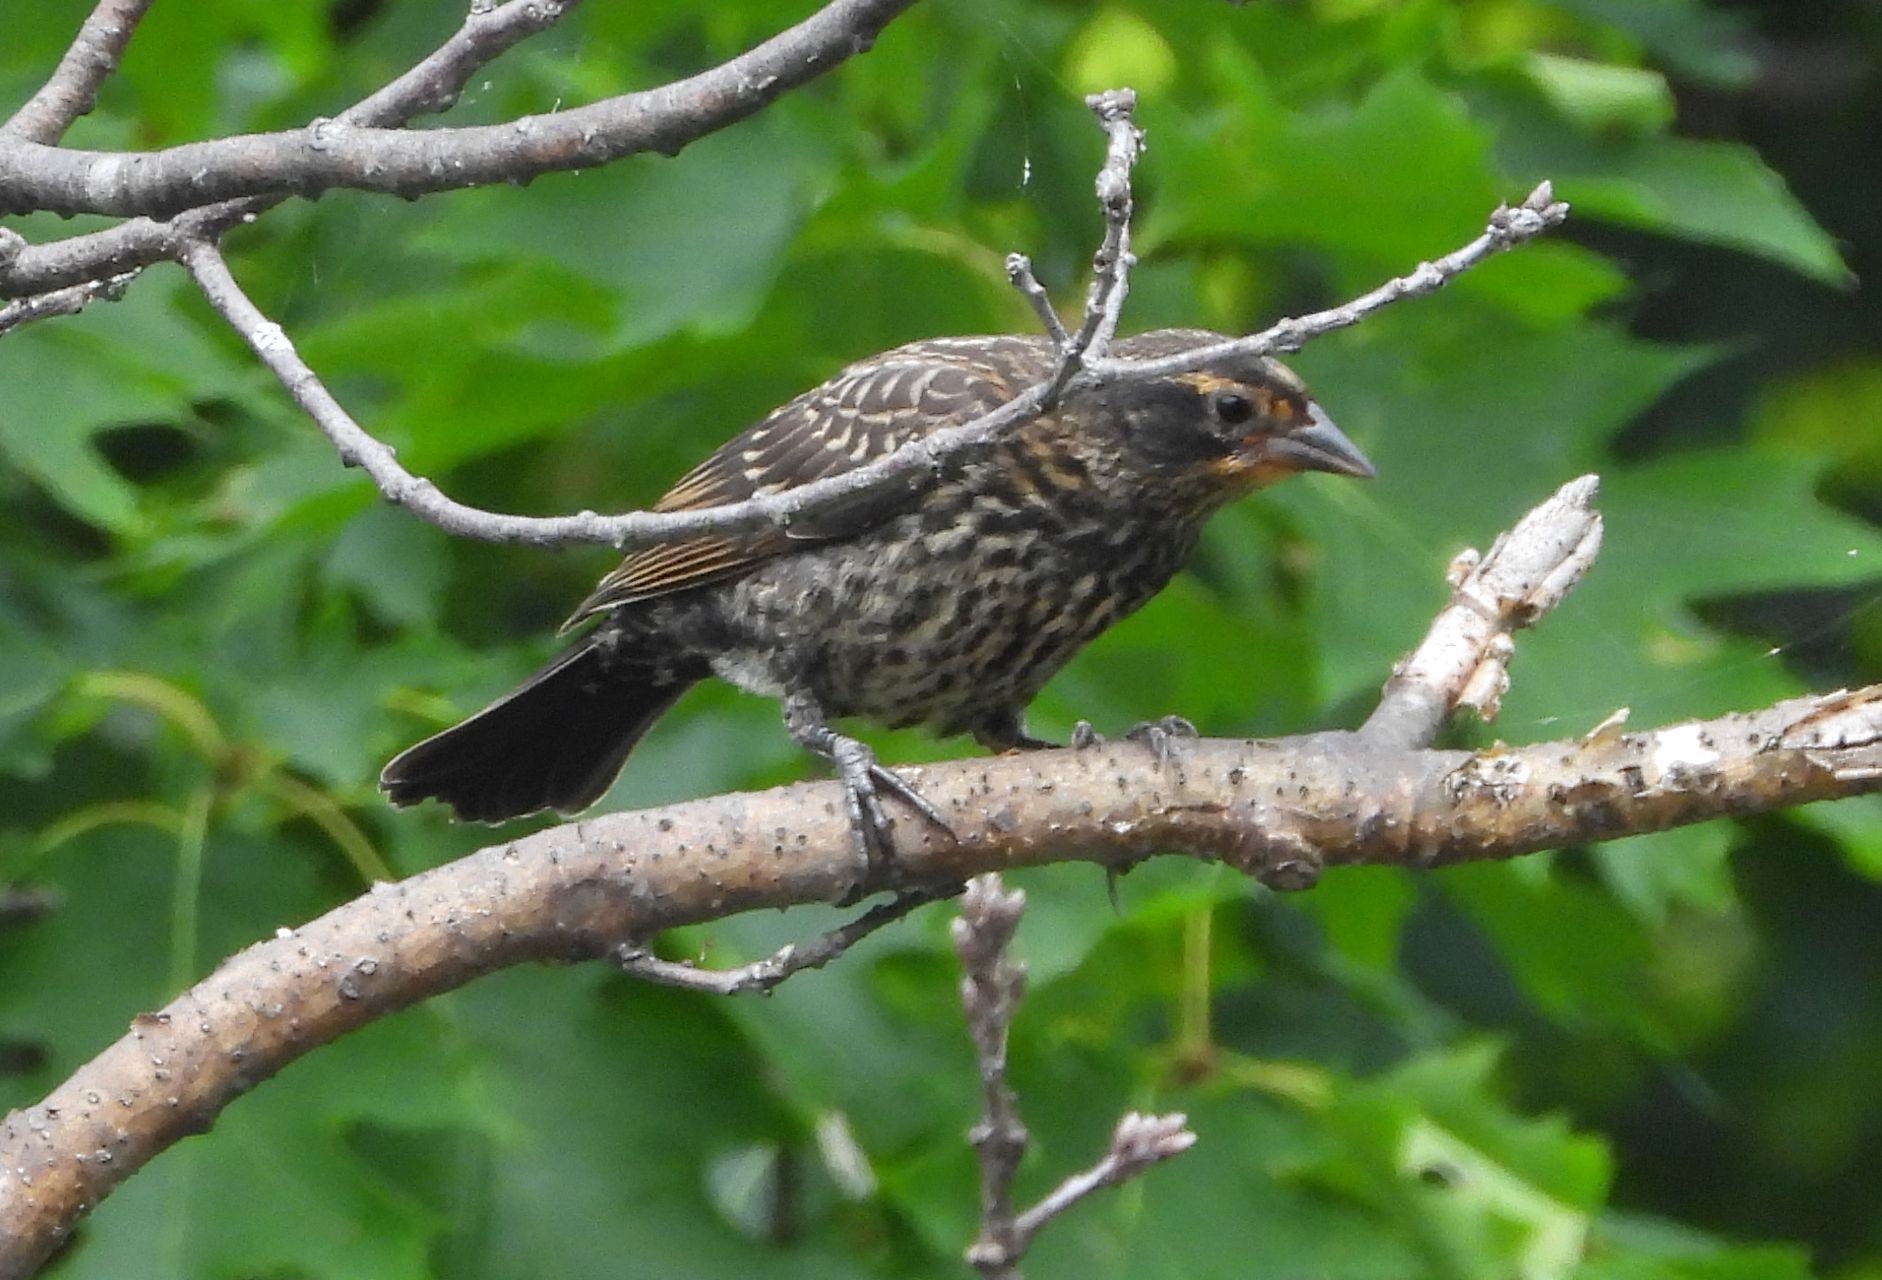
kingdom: Animalia
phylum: Chordata
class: Aves
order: Passeriformes
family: Icteridae
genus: Agelaius
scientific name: Agelaius phoeniceus
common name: Red-winged blackbird
